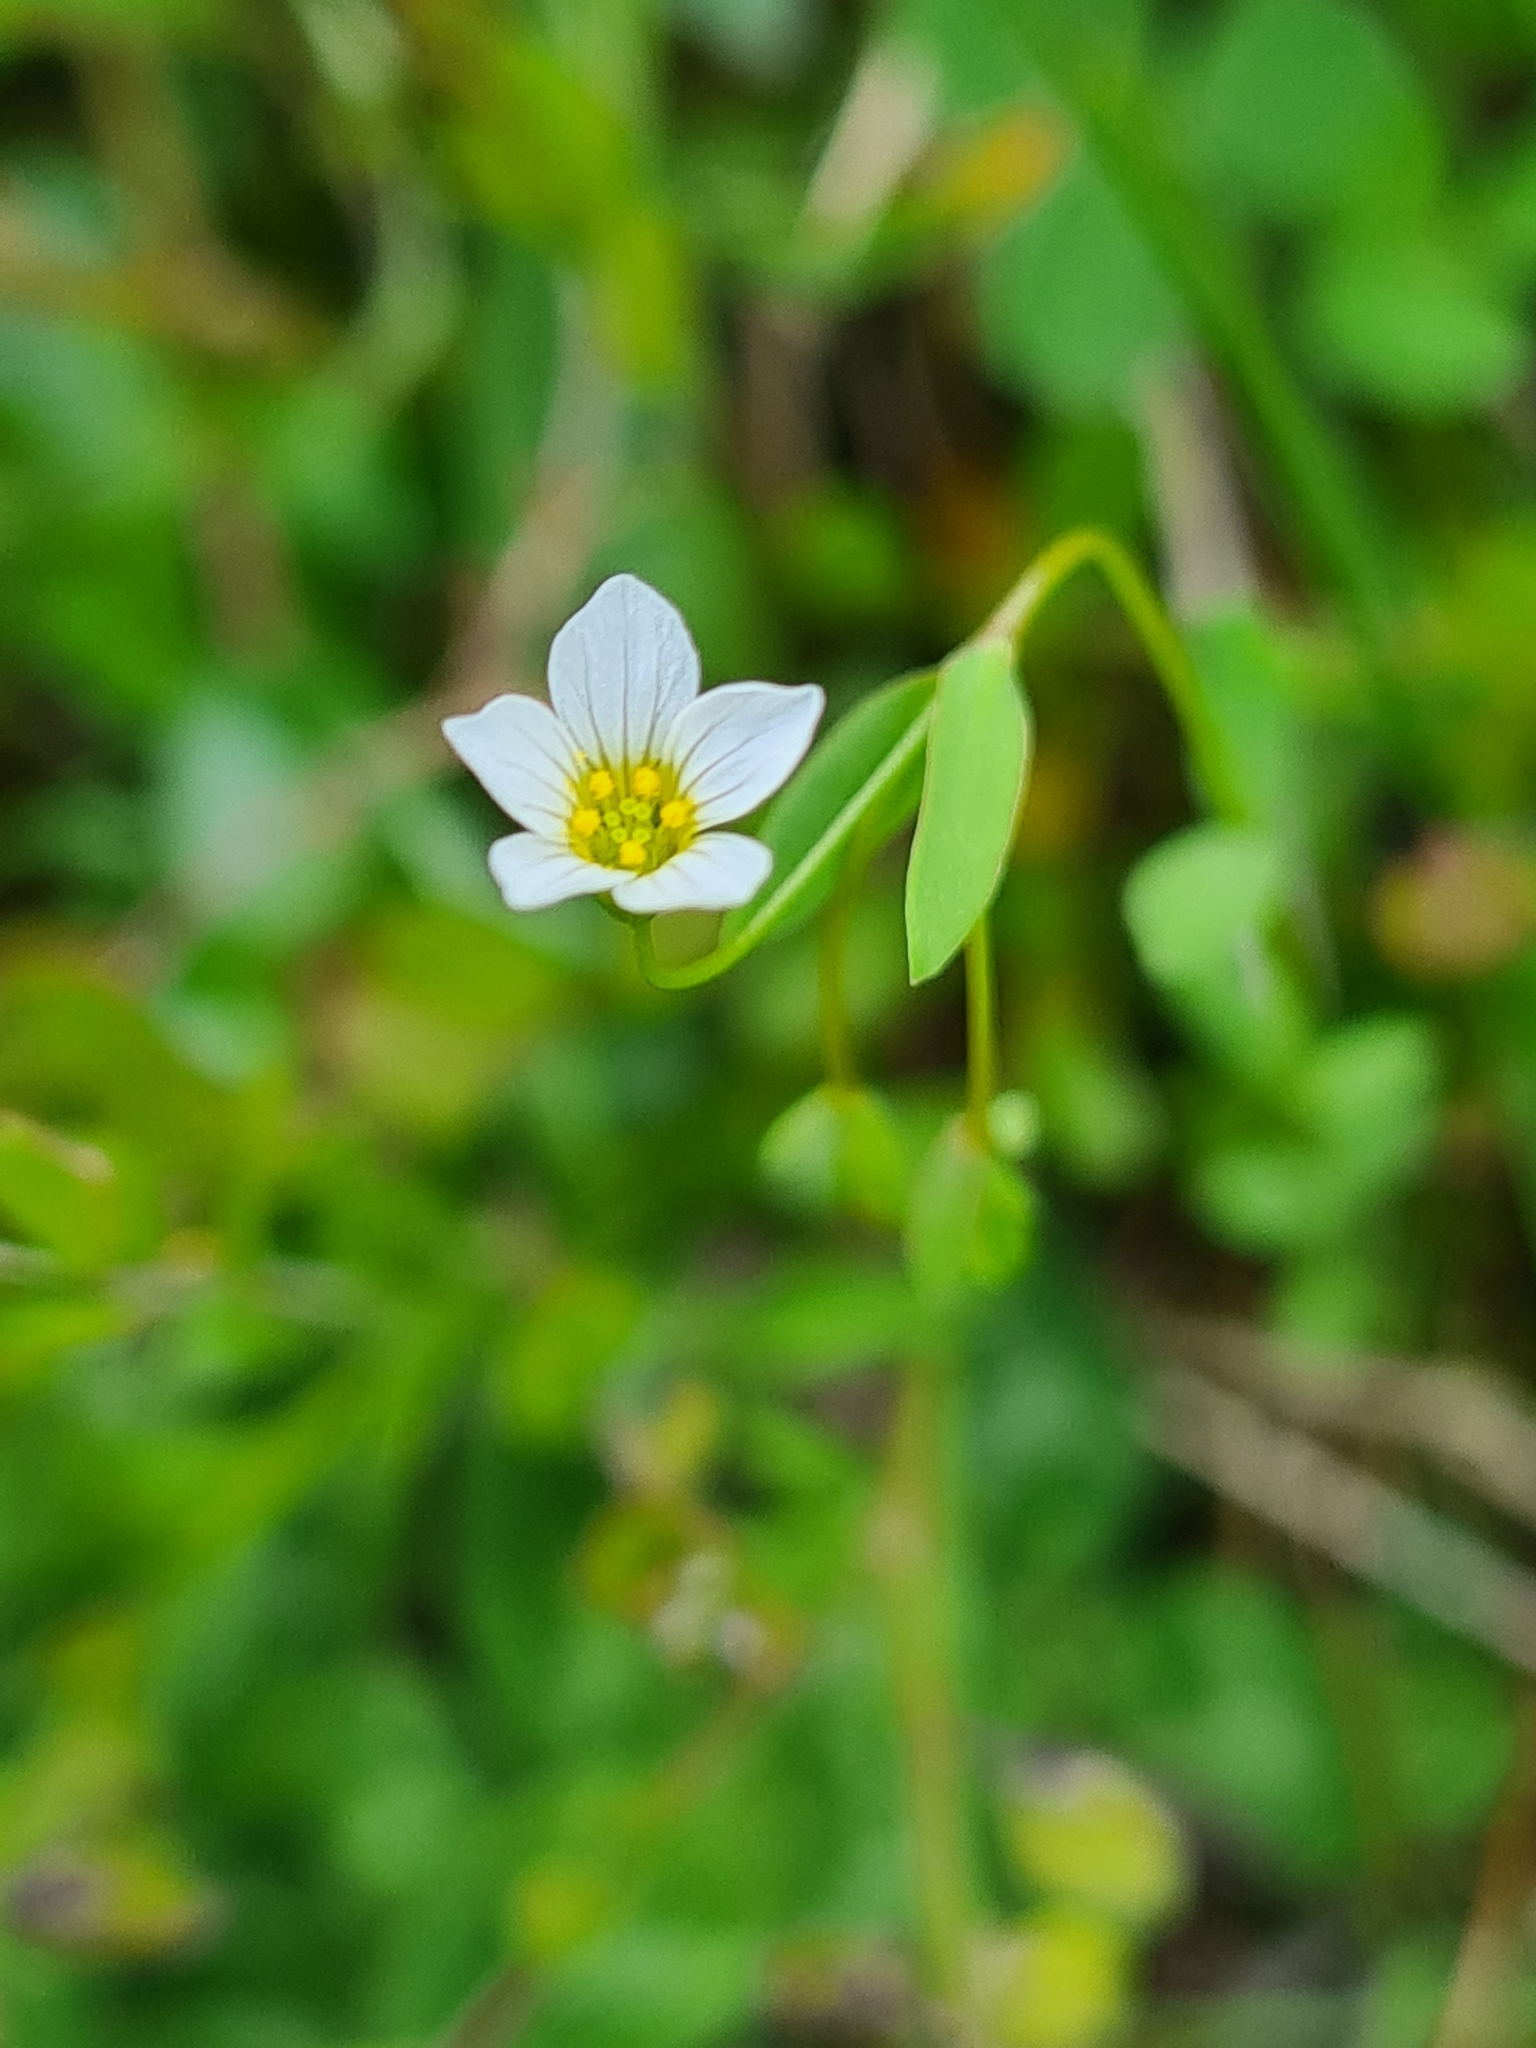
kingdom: Plantae
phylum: Tracheophyta
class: Magnoliopsida
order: Malpighiales
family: Linaceae
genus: Linum
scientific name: Linum catharticum
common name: Fairy flax
